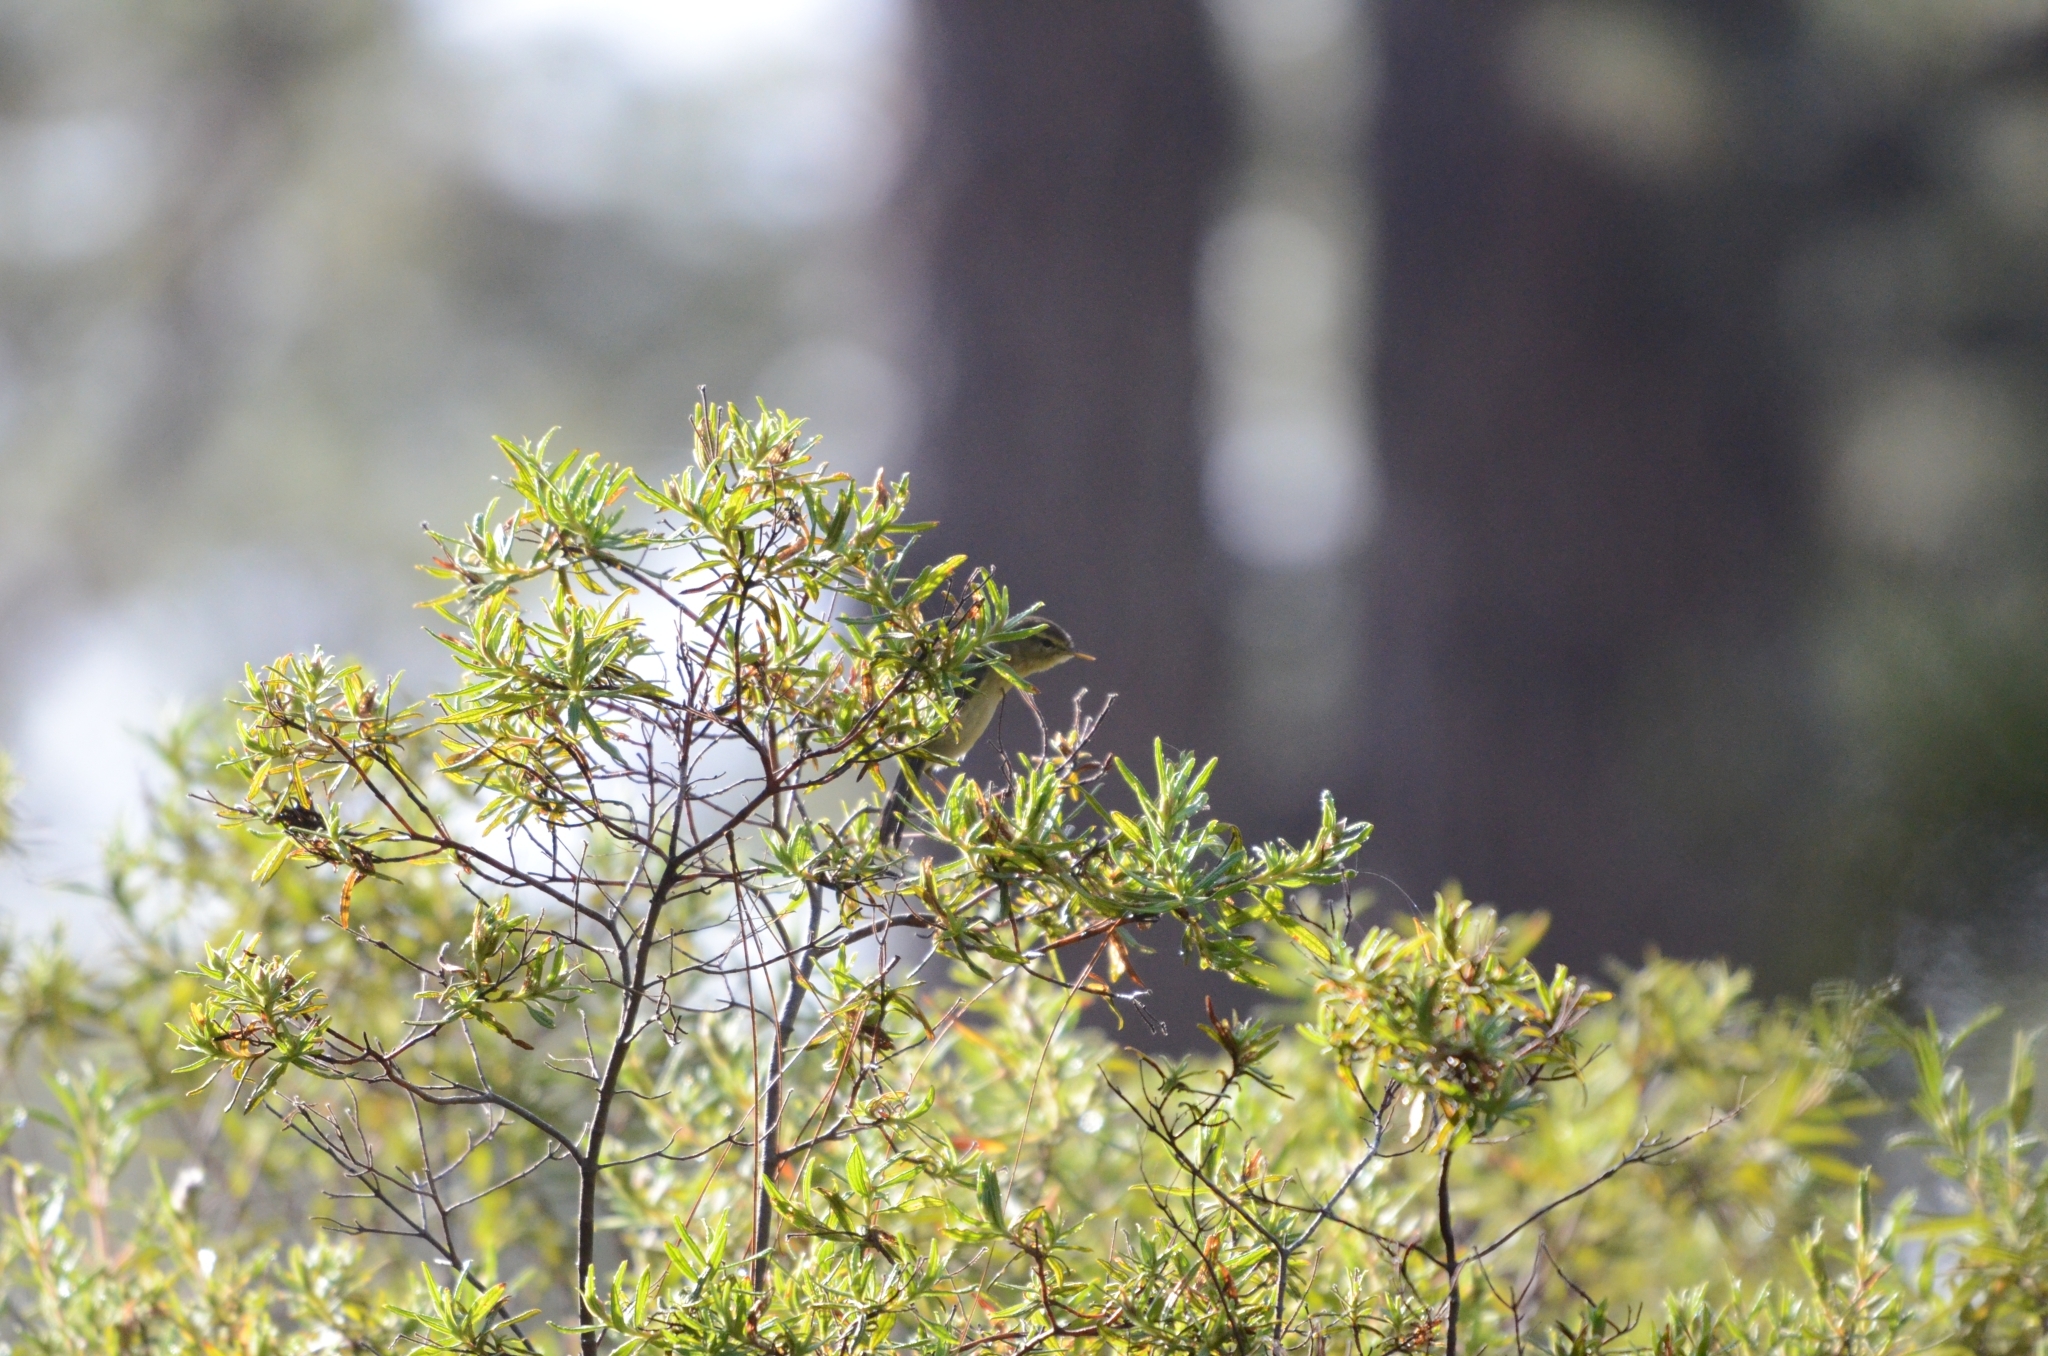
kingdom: Animalia
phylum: Chordata
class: Aves
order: Passeriformes
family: Phylloscopidae
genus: Phylloscopus
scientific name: Phylloscopus canariensis
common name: Canary islands chiffchaff
